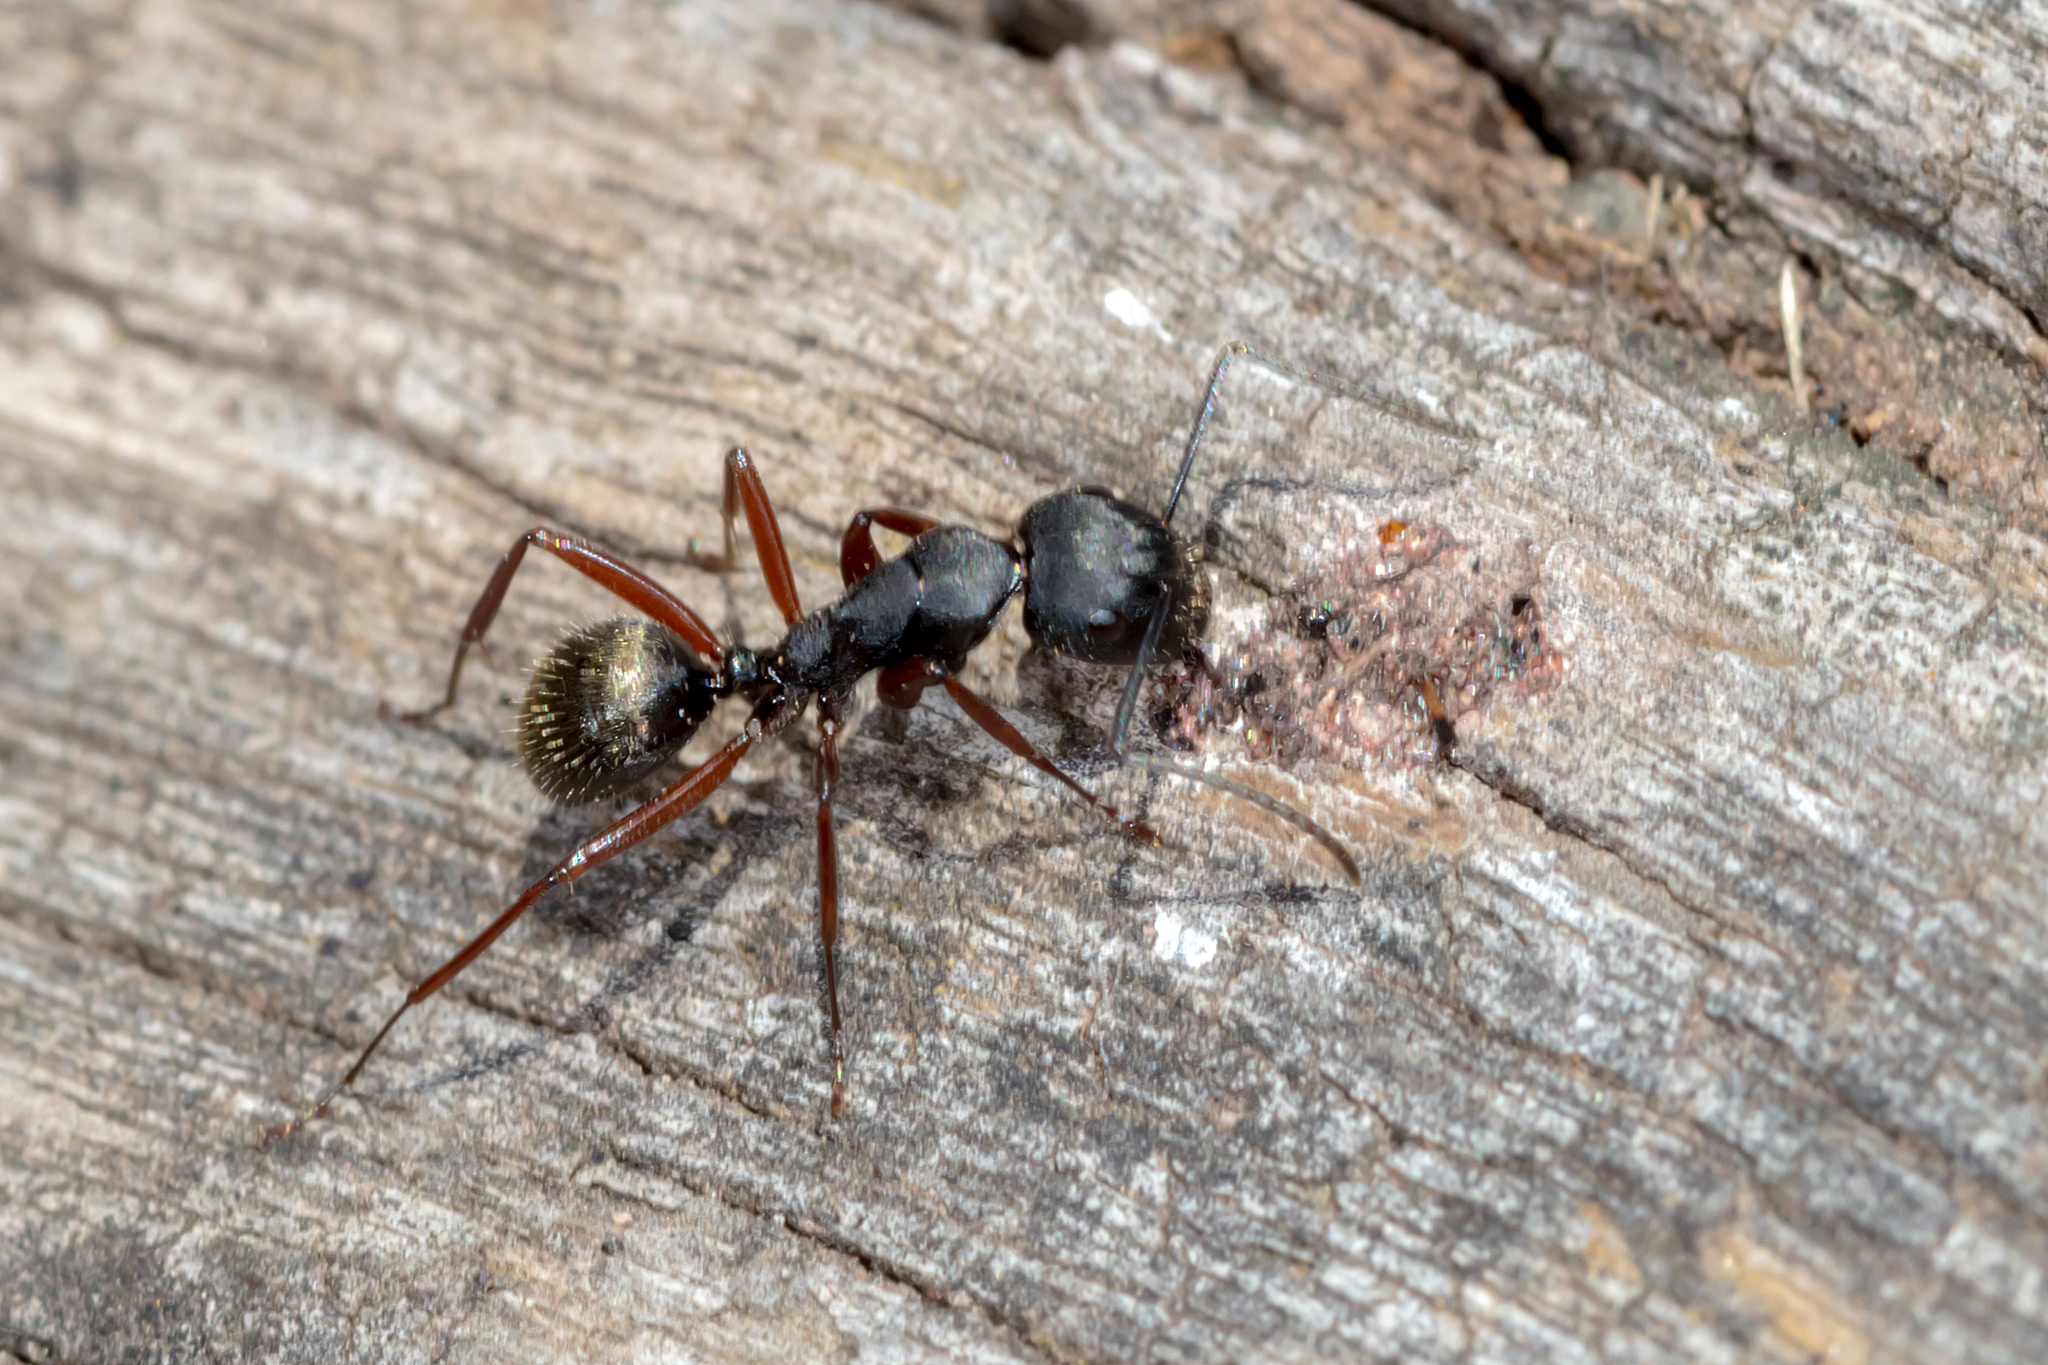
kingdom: Animalia
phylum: Arthropoda
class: Insecta
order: Hymenoptera
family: Formicidae
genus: Camponotus
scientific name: Camponotus oxleyi
